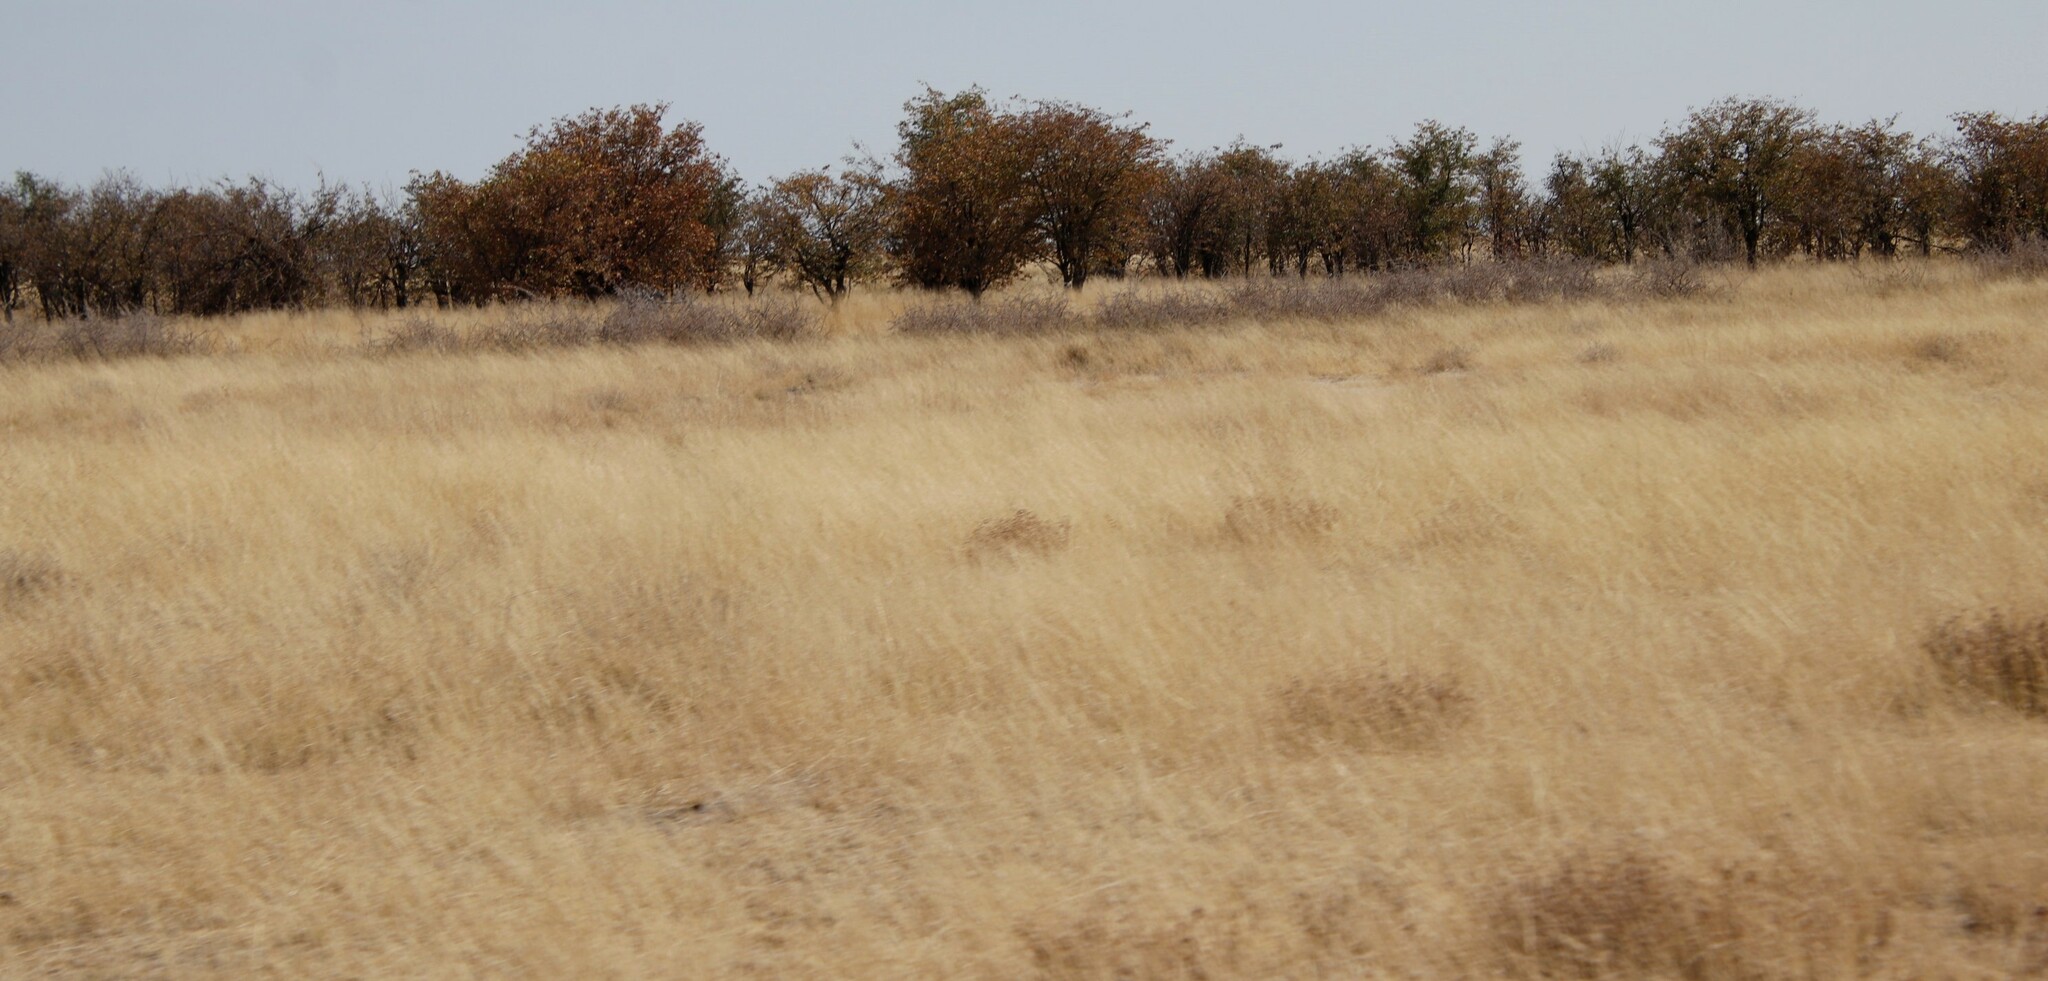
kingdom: Plantae
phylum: Tracheophyta
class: Magnoliopsida
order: Fabales
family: Fabaceae
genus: Colophospermum
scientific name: Colophospermum mopane
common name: Mopane
